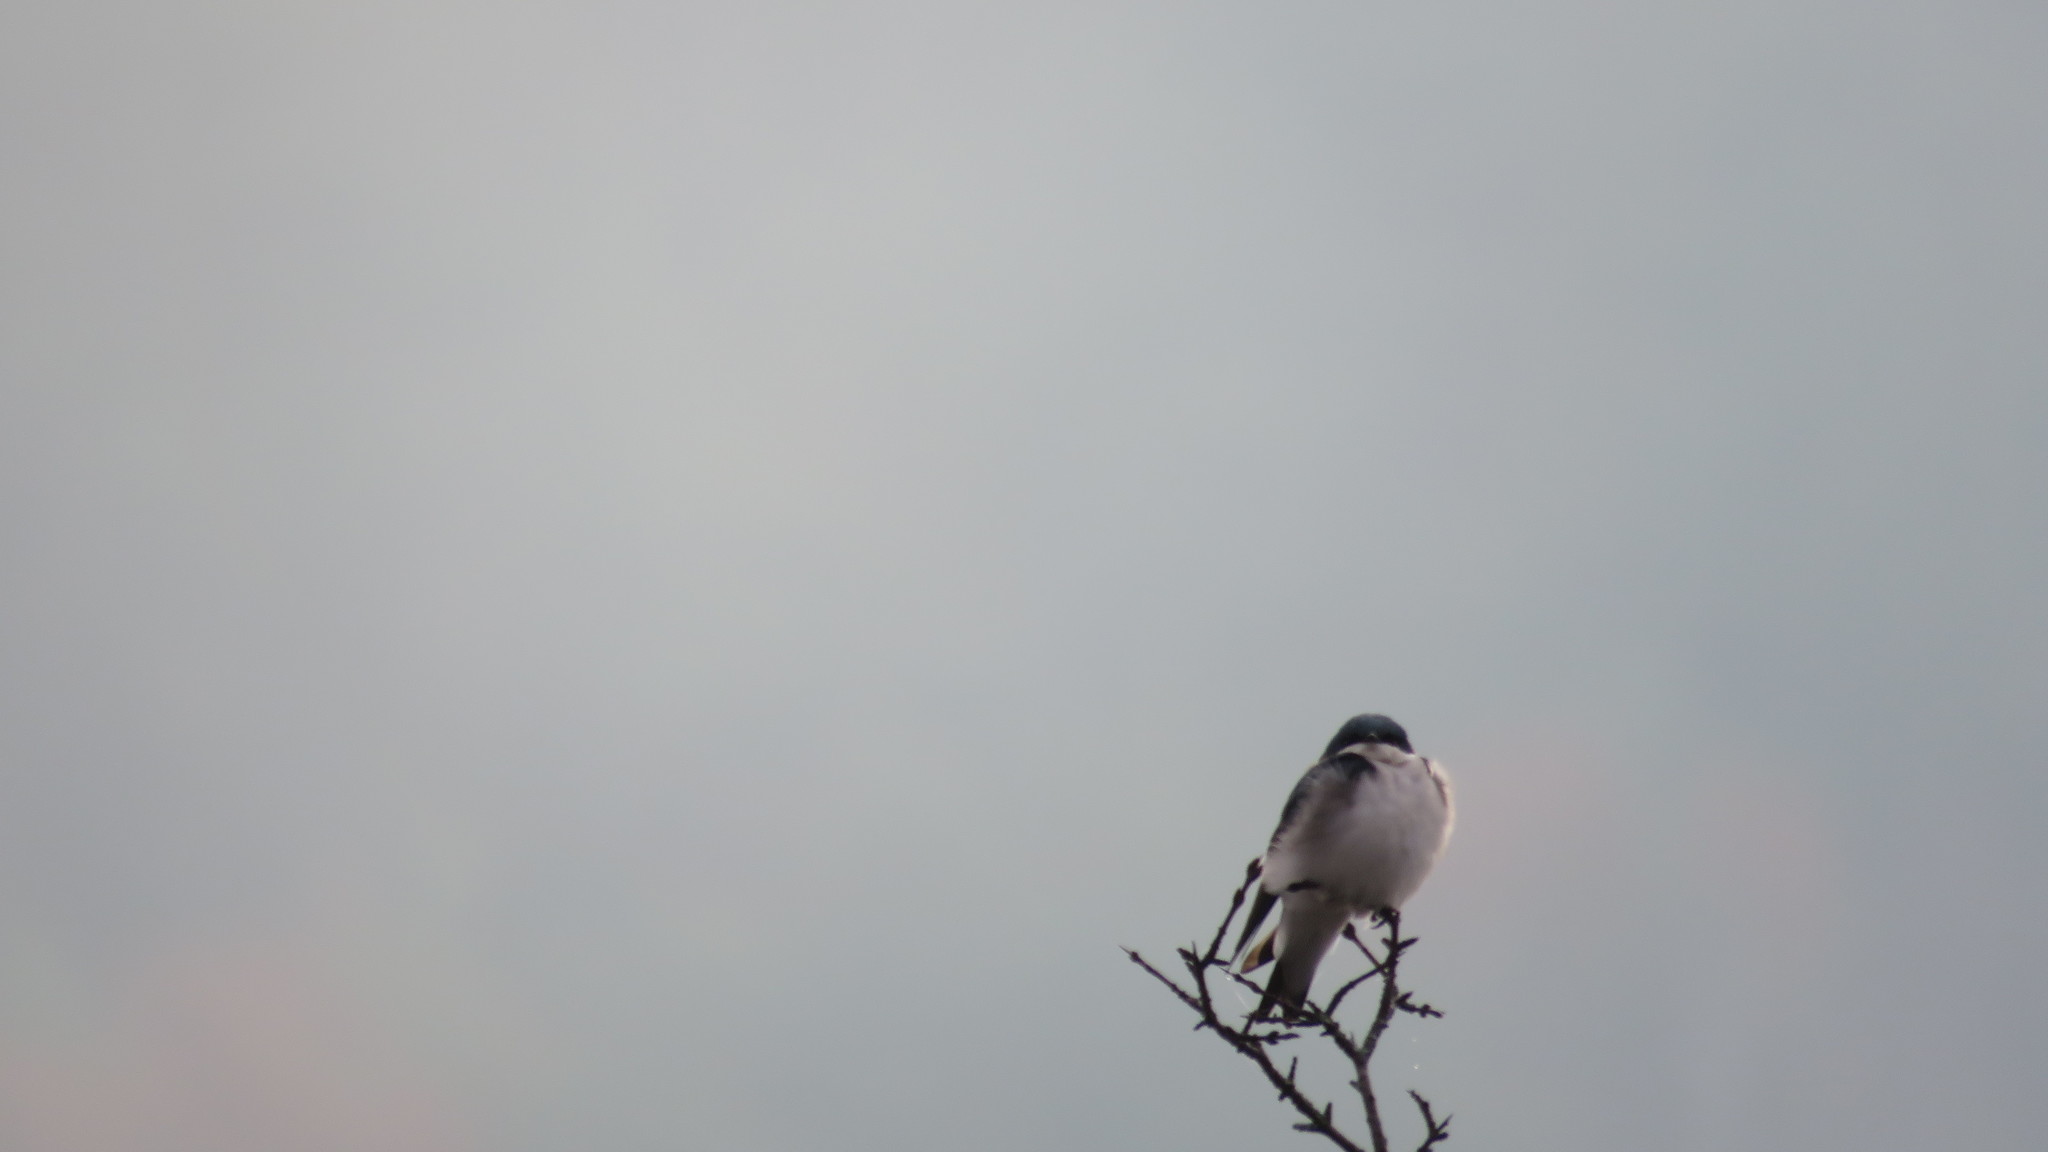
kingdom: Animalia
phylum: Chordata
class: Aves
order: Passeriformes
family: Hirundinidae
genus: Tachycineta
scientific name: Tachycineta bicolor
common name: Tree swallow
